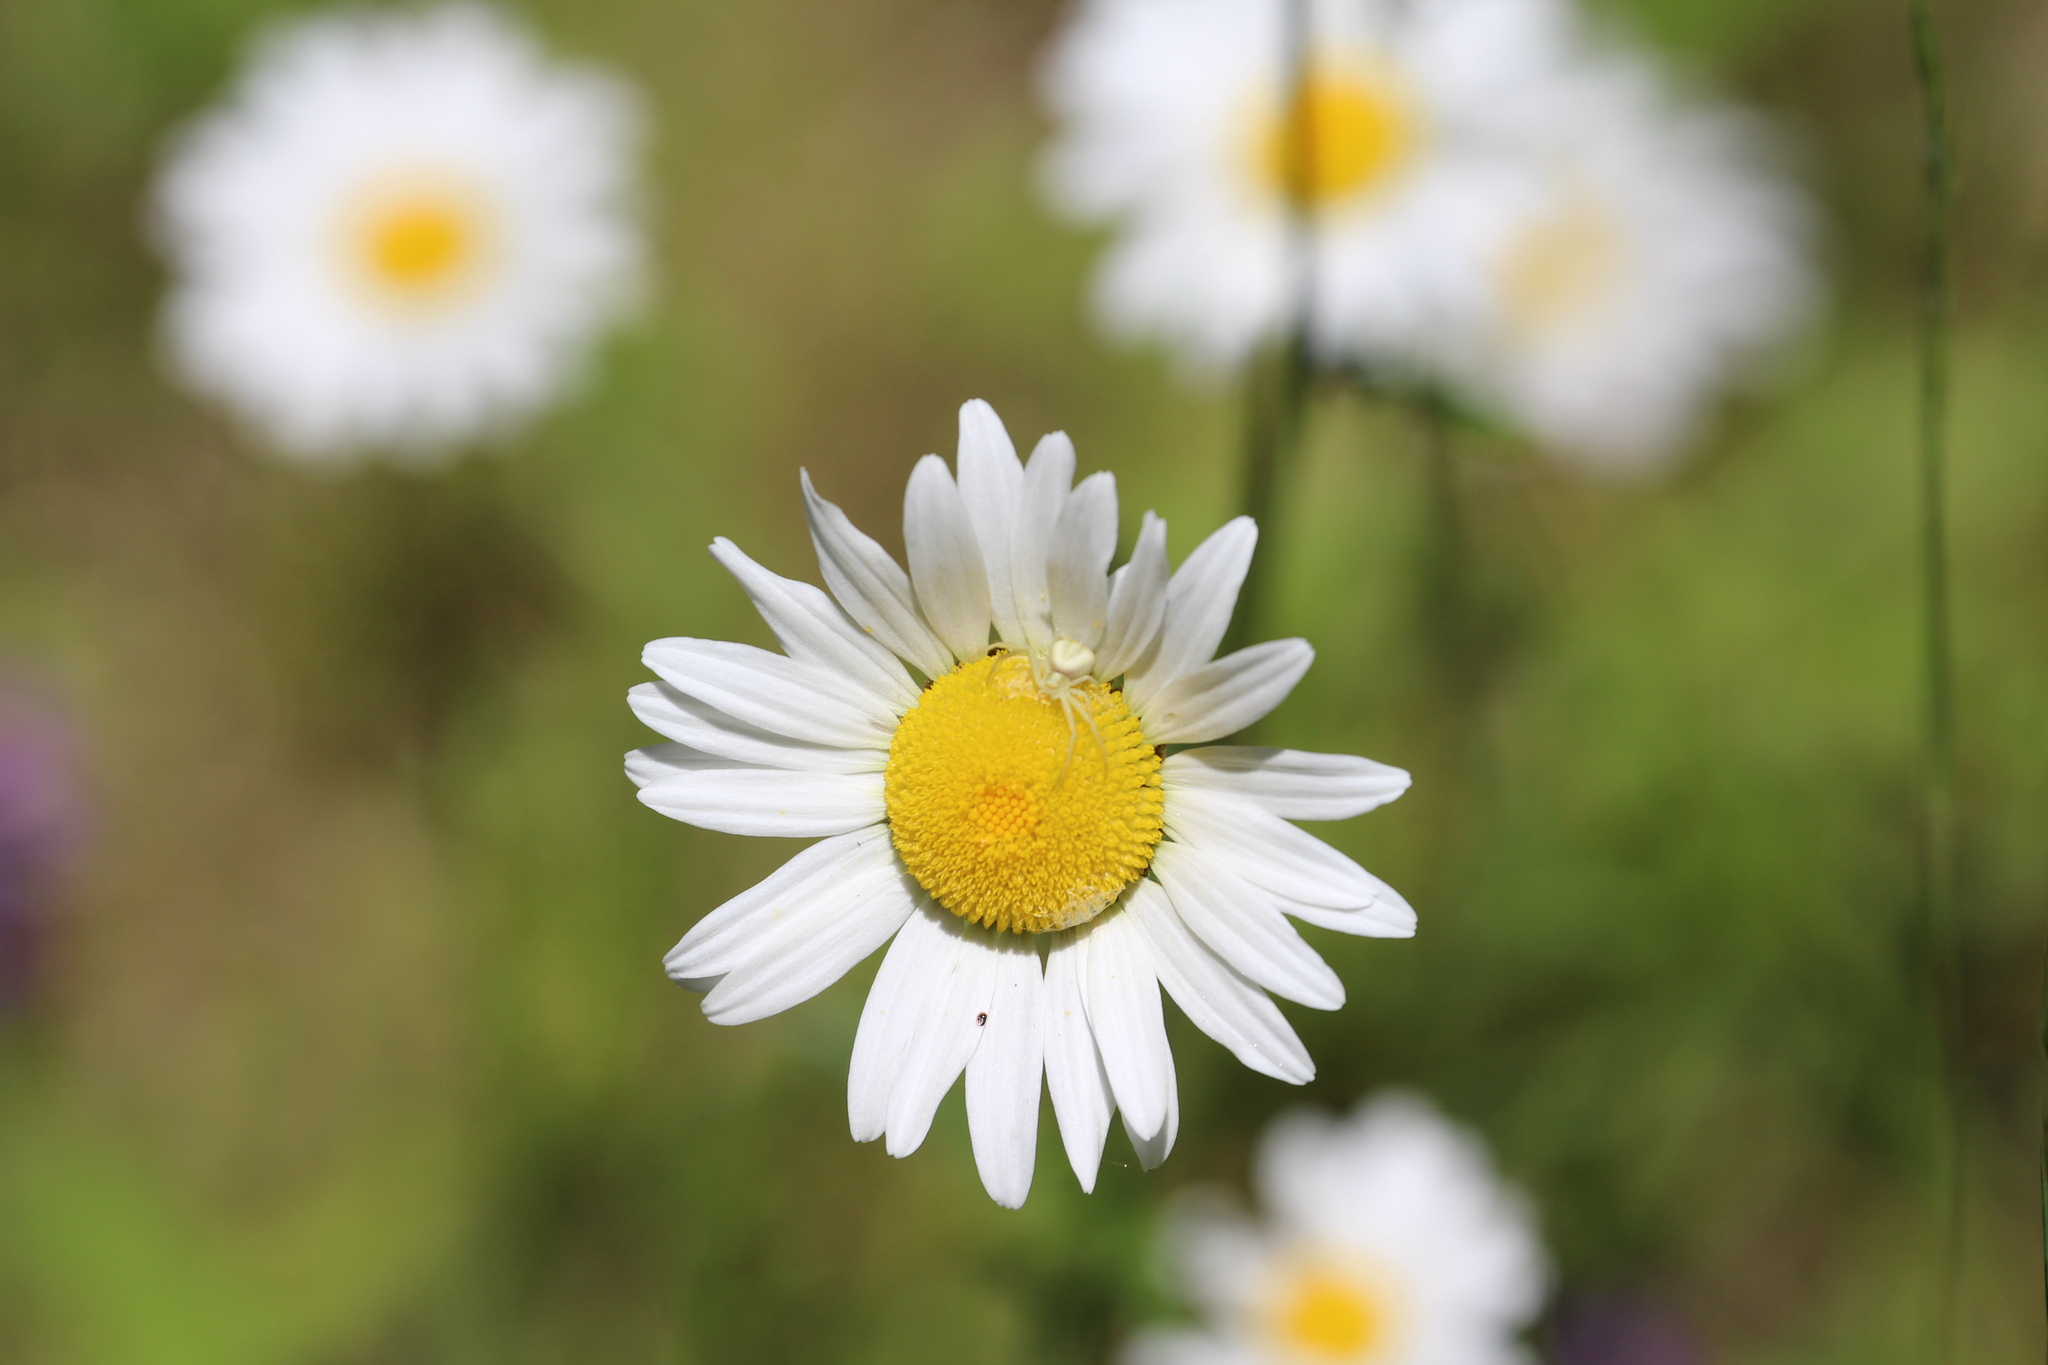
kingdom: Animalia
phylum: Arthropoda
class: Arachnida
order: Araneae
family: Thomisidae
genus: Misumena
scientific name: Misumena vatia
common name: Goldenrod crab spider
